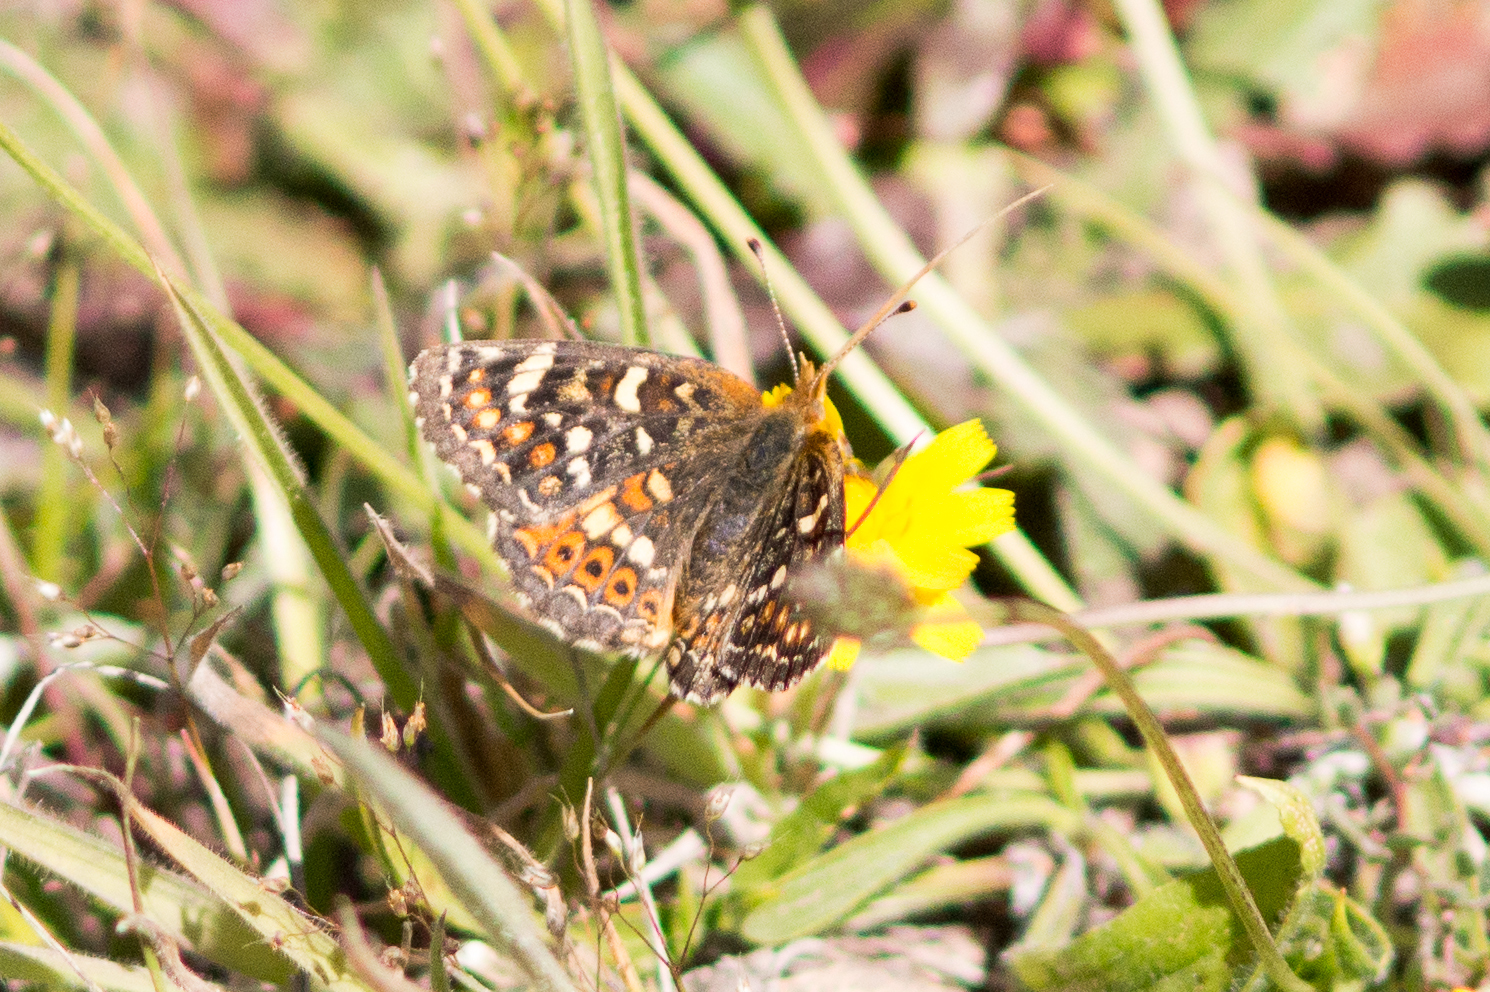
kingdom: Animalia
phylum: Arthropoda
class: Insecta
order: Lepidoptera
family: Nymphalidae
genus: Phyciodes
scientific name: Phyciodes tharos
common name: Pearl crescent
